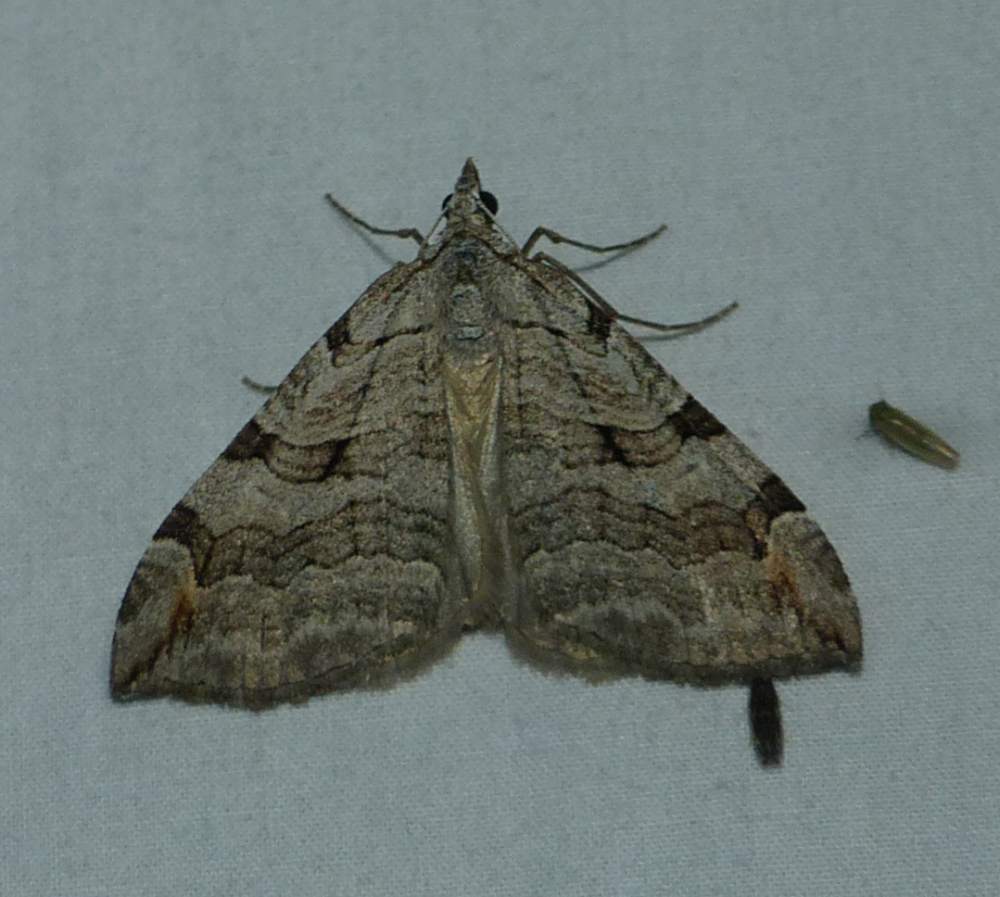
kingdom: Animalia
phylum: Arthropoda
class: Insecta
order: Lepidoptera
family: Geometridae
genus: Aplocera
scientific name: Aplocera plagiata
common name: Treble-bar
